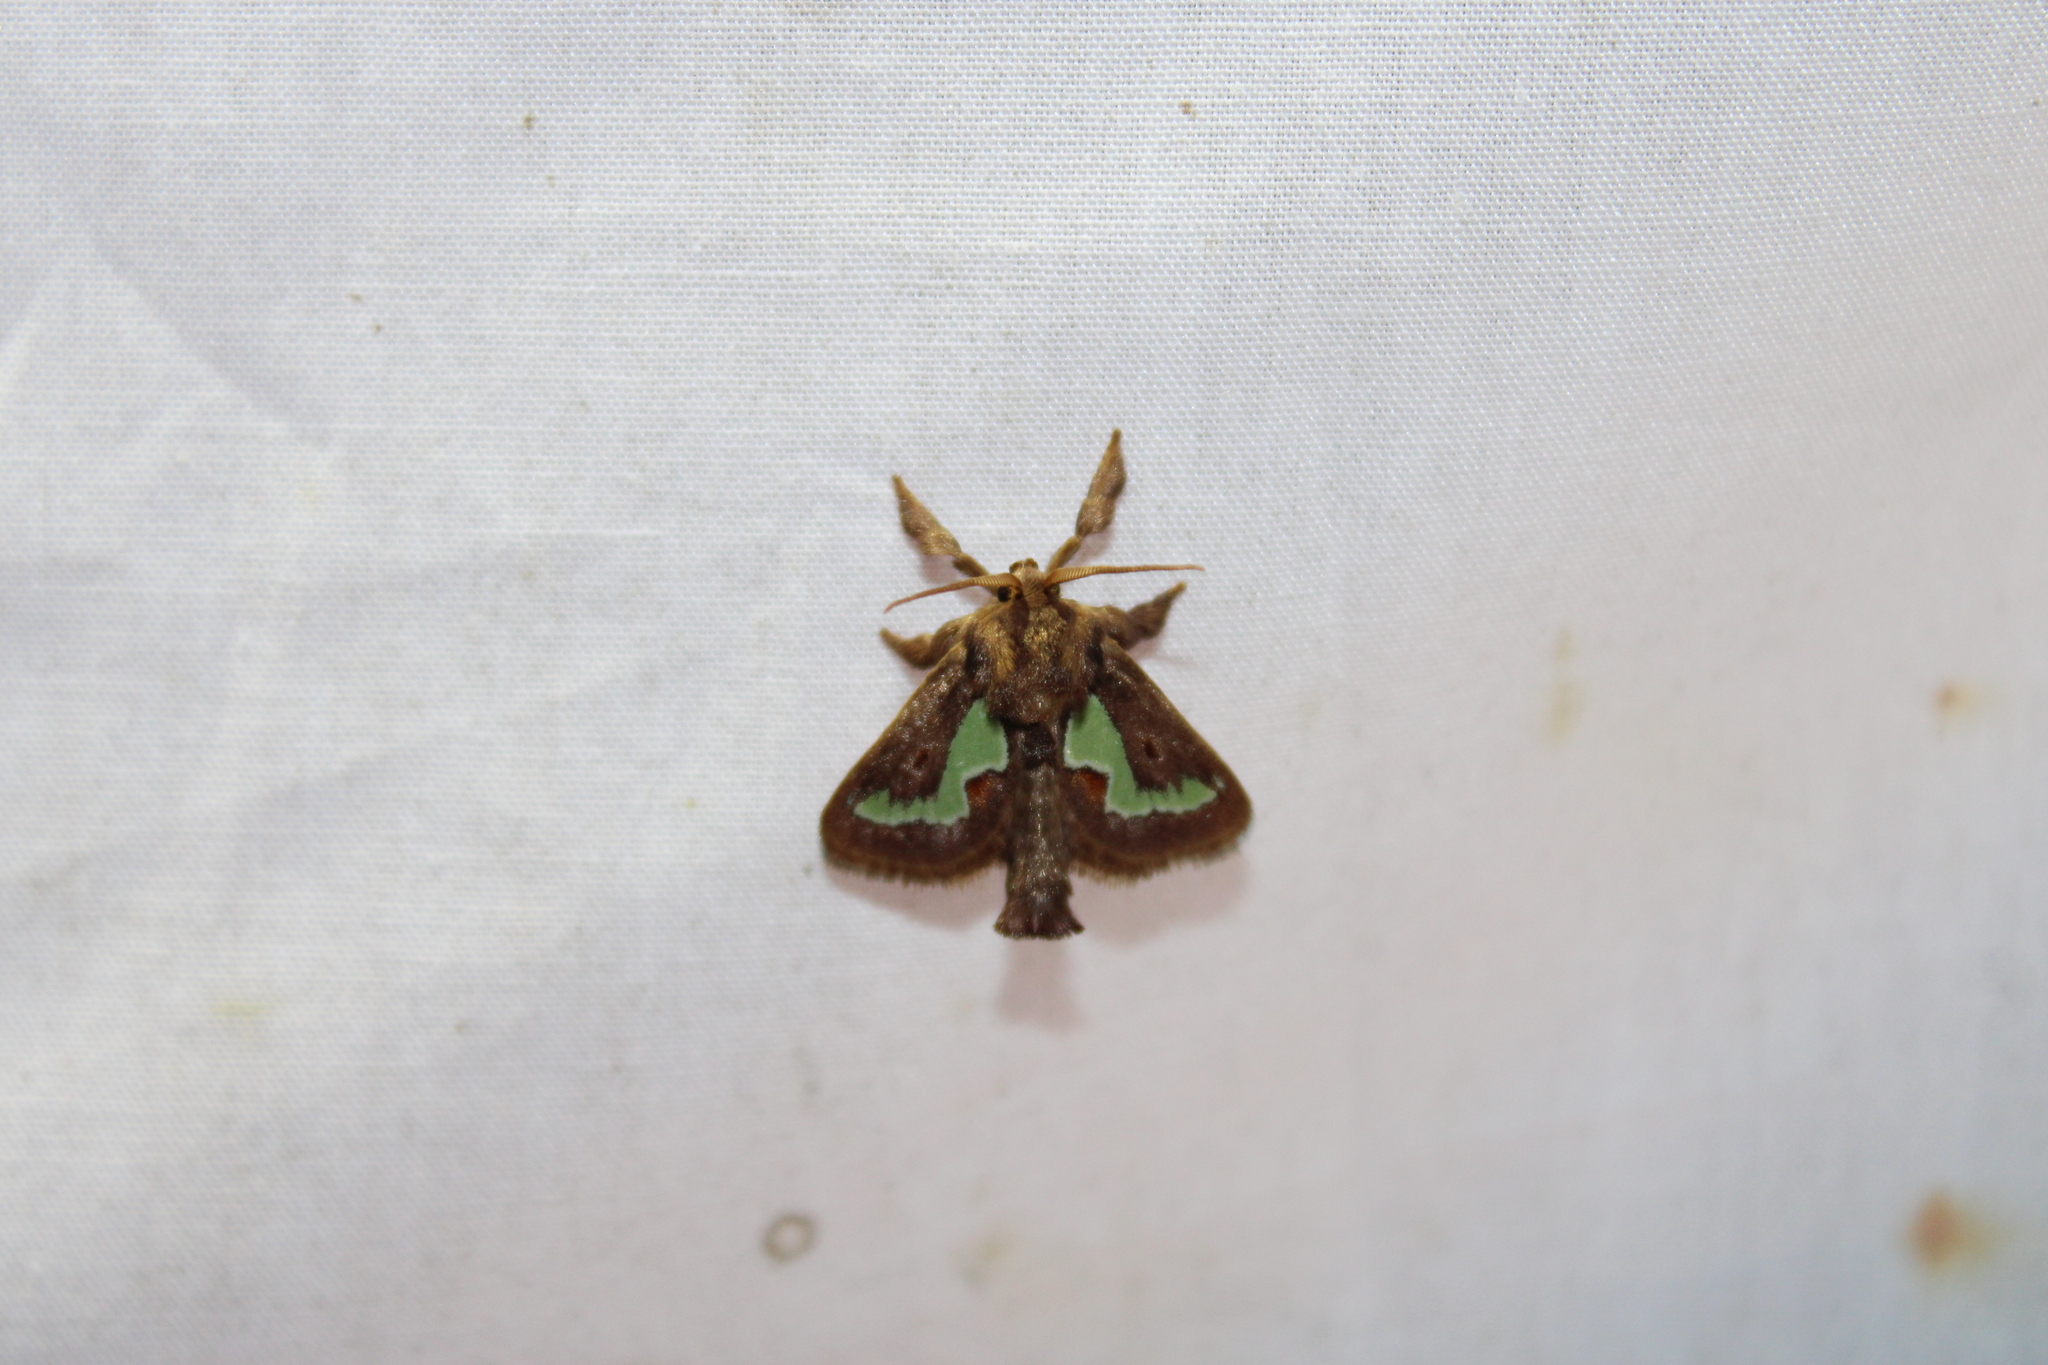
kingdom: Animalia
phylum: Arthropoda
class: Insecta
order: Lepidoptera
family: Limacodidae
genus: Euclea
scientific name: Euclea delphinii
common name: Spiny oak-slug moth
